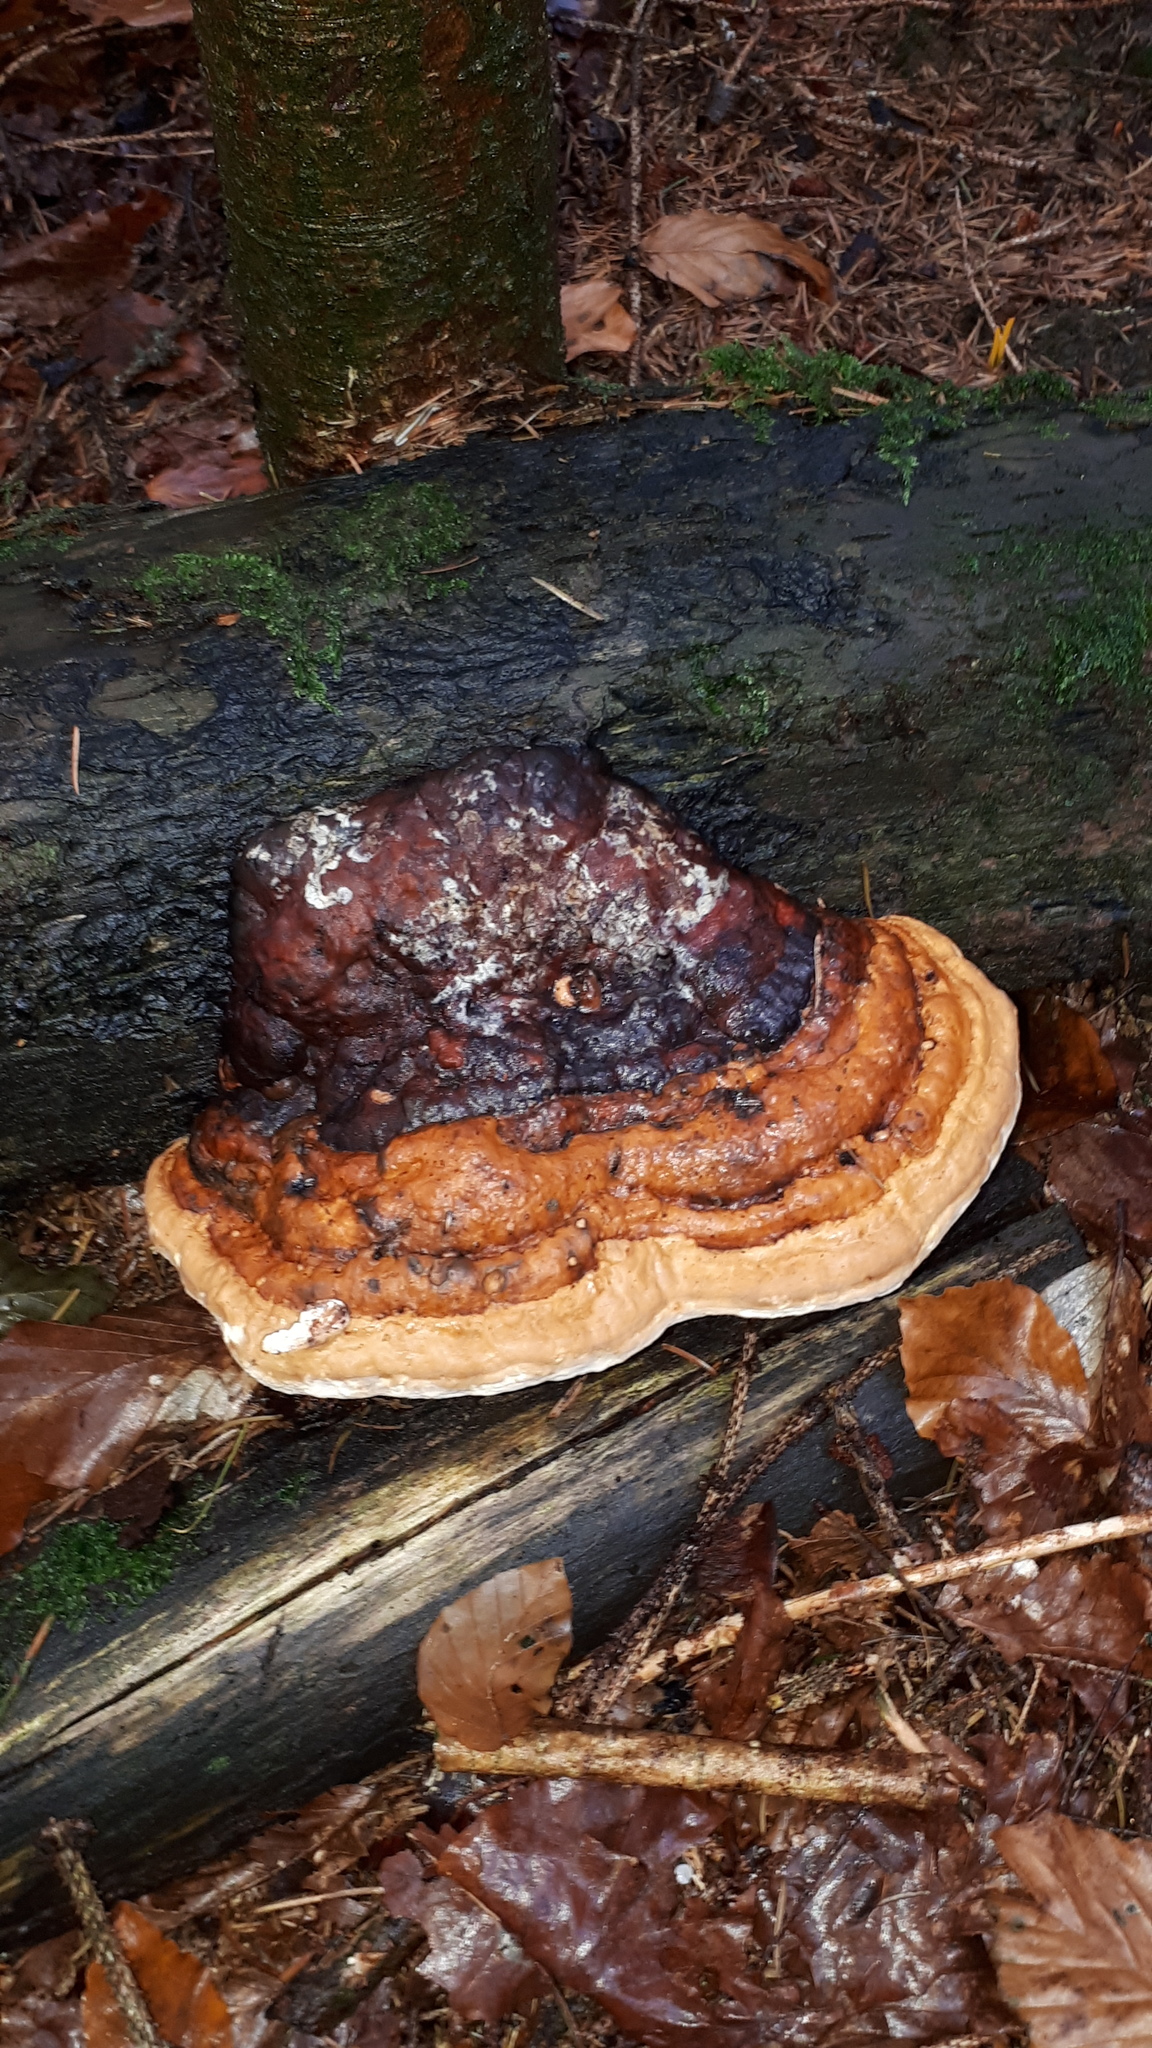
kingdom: Fungi
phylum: Basidiomycota
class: Agaricomycetes
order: Polyporales
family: Fomitopsidaceae
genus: Fomitopsis
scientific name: Fomitopsis pinicola
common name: Red-belted bracket
